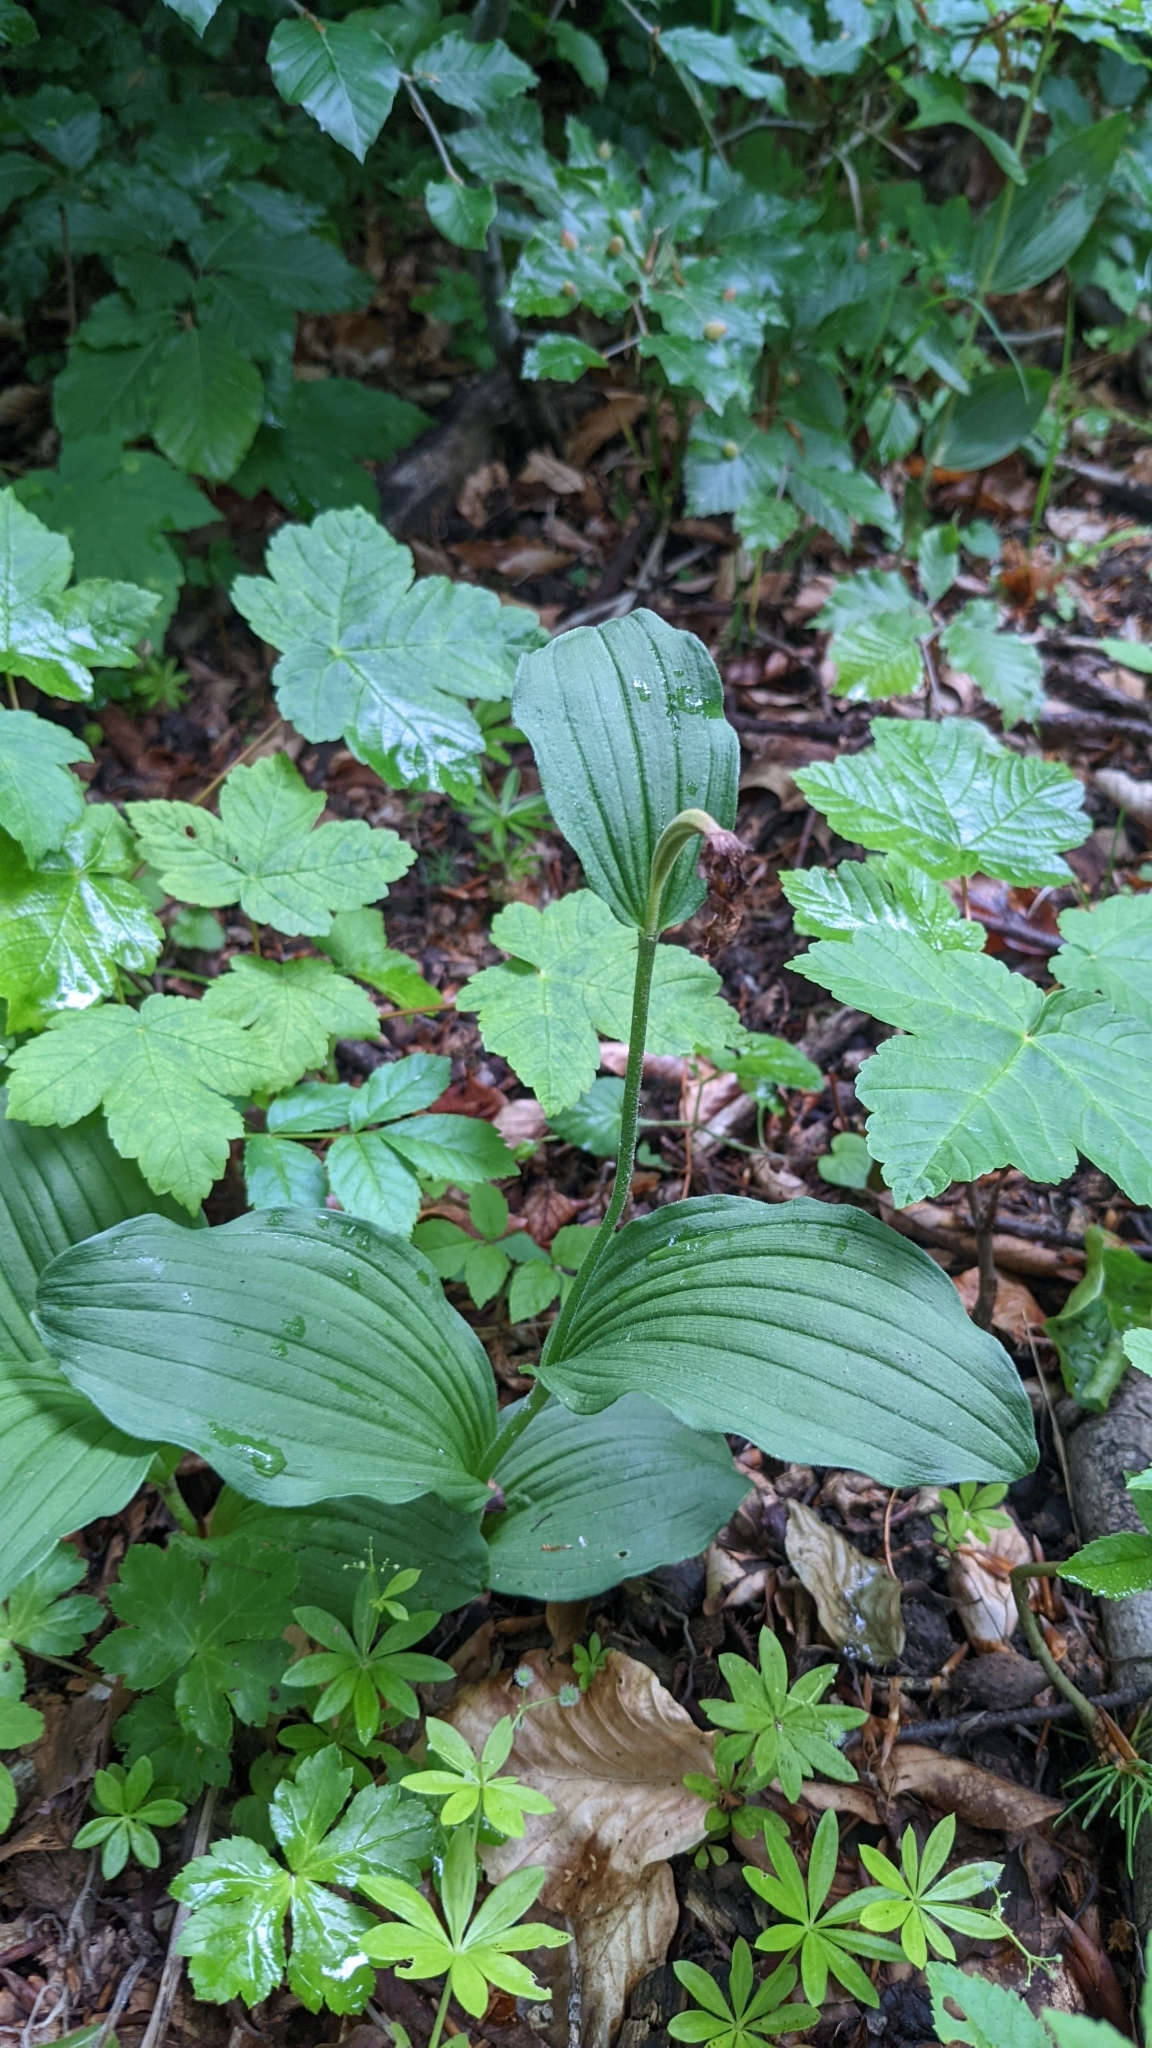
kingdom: Plantae
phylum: Tracheophyta
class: Liliopsida
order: Asparagales
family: Orchidaceae
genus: Cypripedium
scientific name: Cypripedium calceolus
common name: Lady's-slipper
